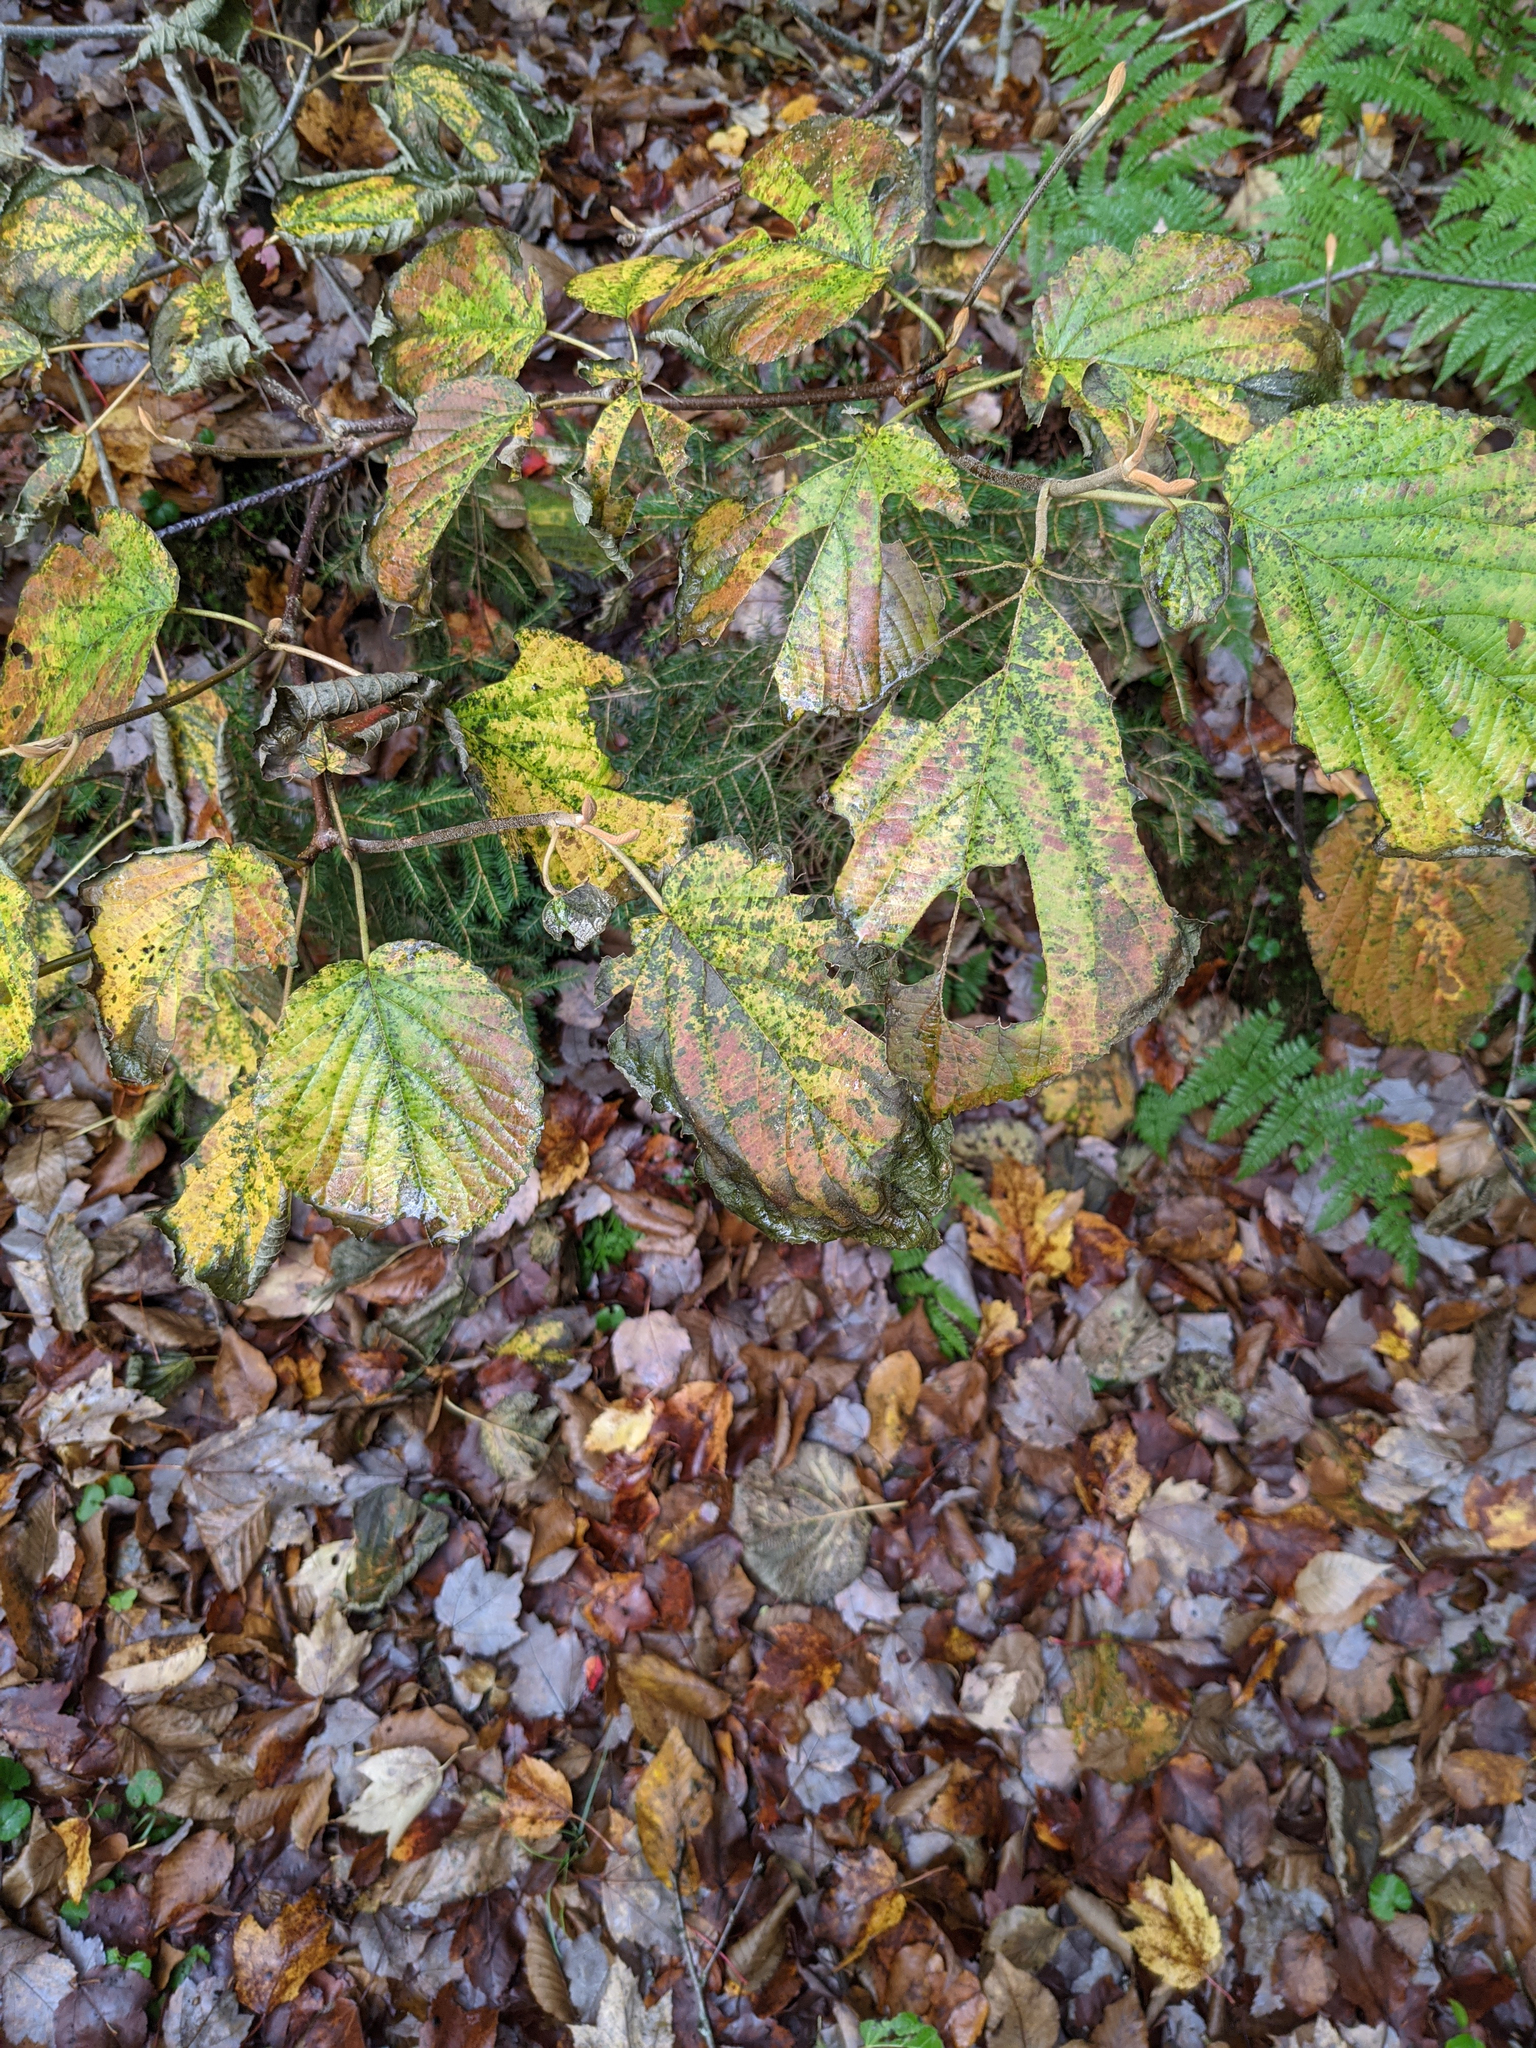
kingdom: Plantae
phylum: Tracheophyta
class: Magnoliopsida
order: Dipsacales
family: Viburnaceae
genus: Viburnum
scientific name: Viburnum lantanoides
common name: Hobblebush
